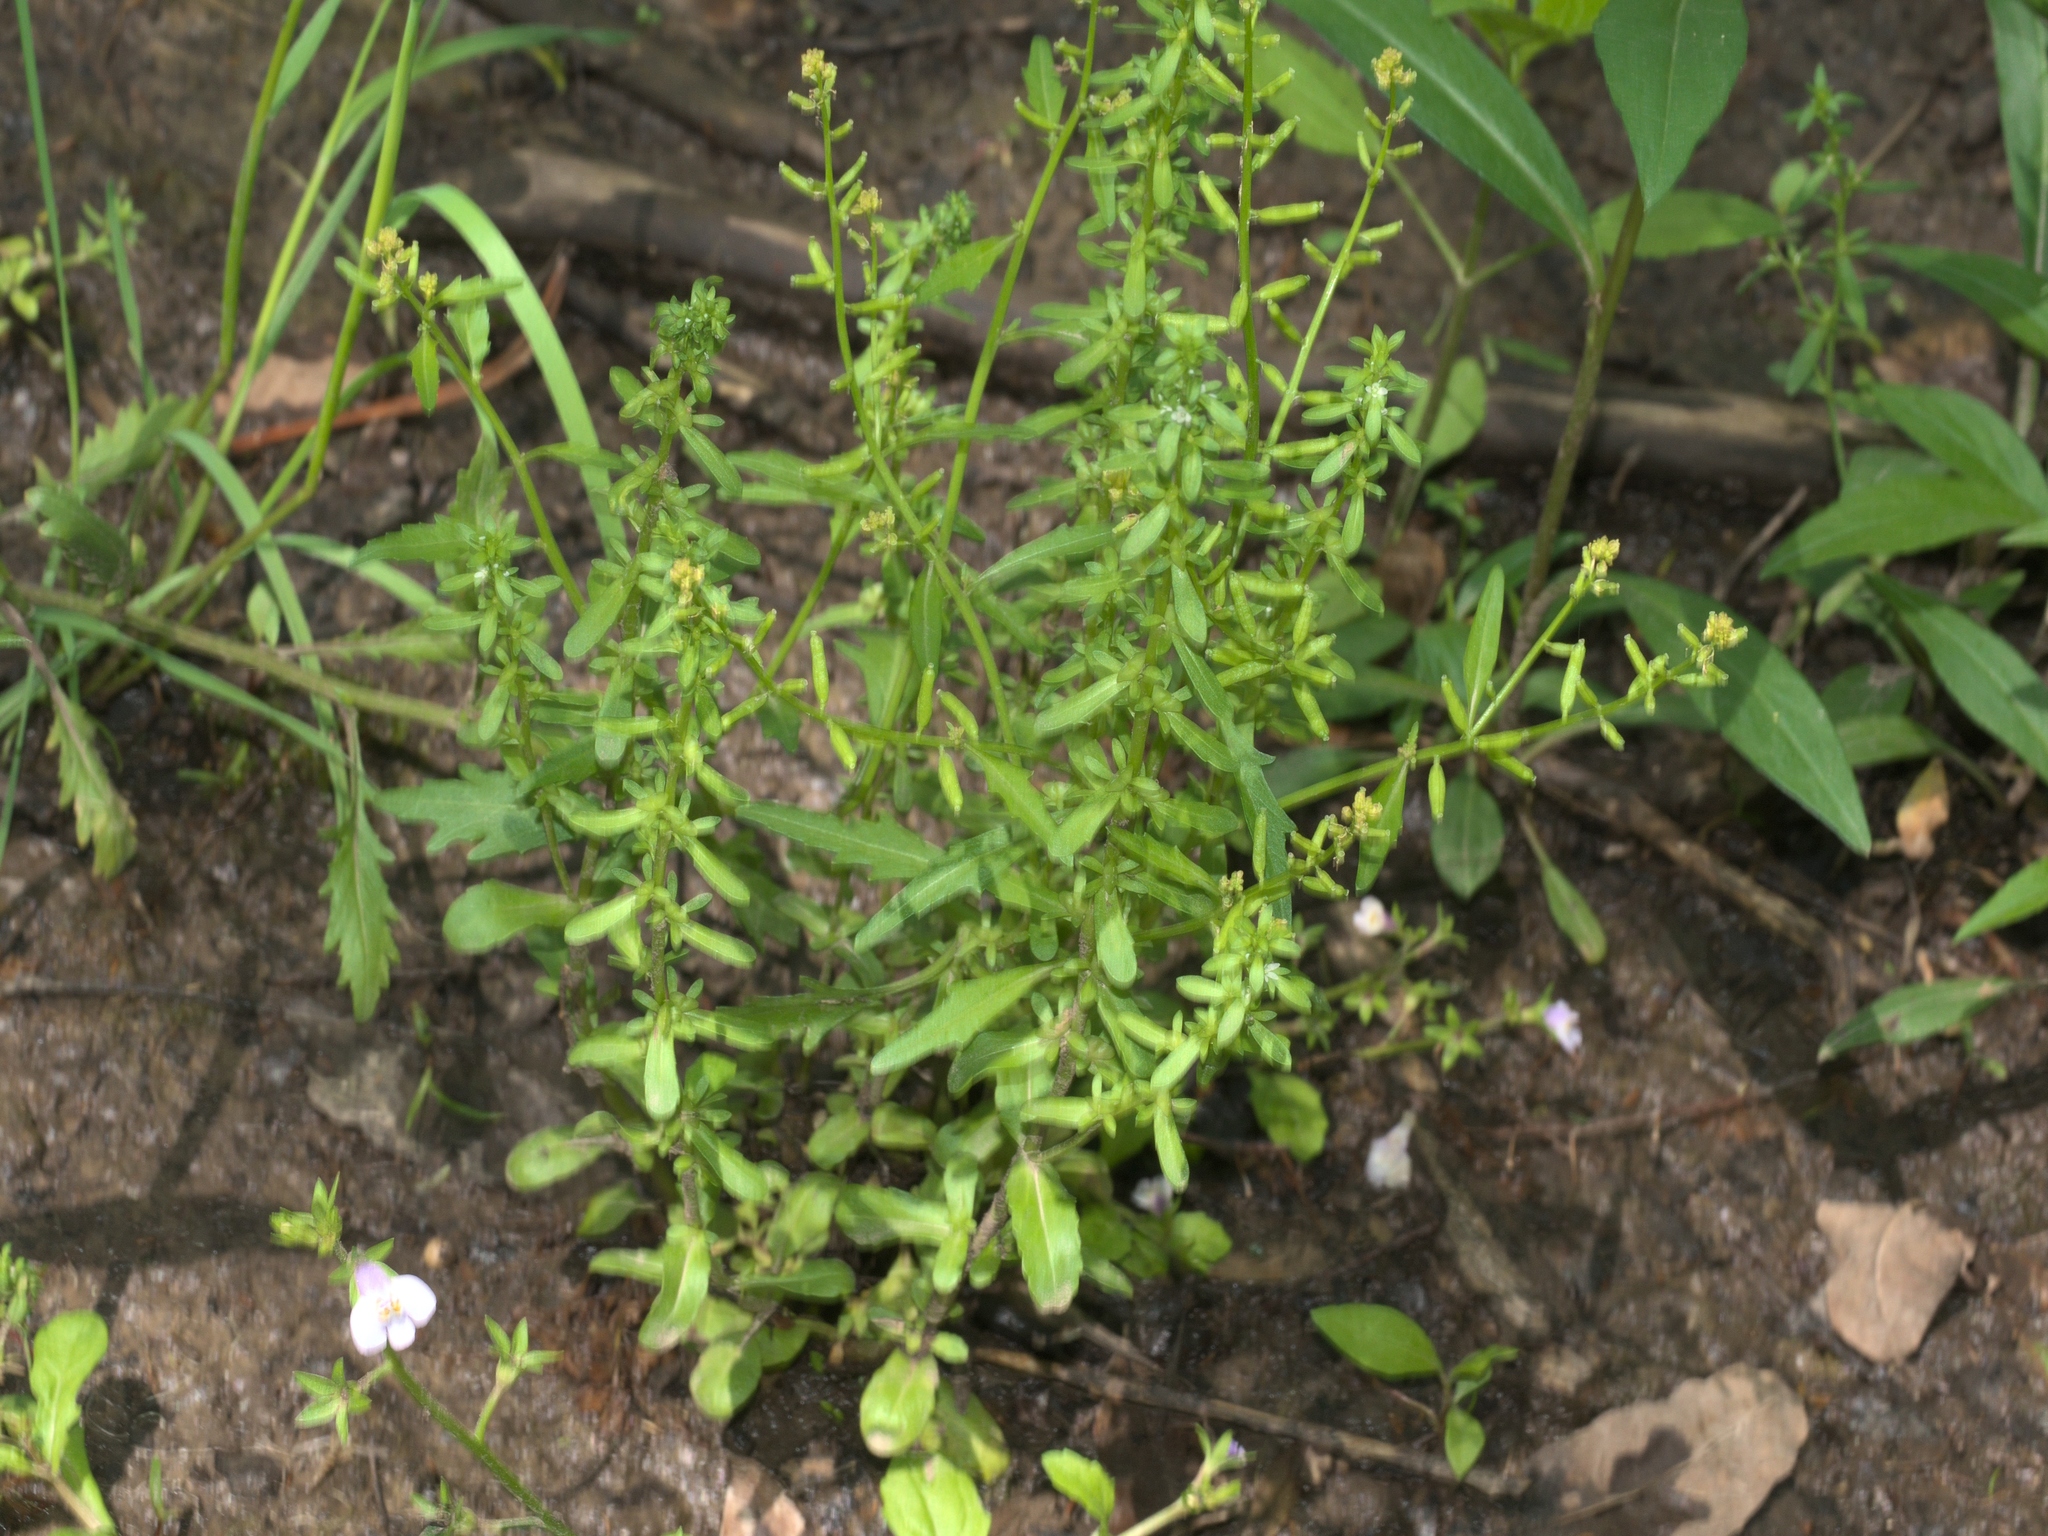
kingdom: Plantae
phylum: Tracheophyta
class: Magnoliopsida
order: Lamiales
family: Plantaginaceae
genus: Veronica
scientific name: Veronica peregrina
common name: Neckweed
